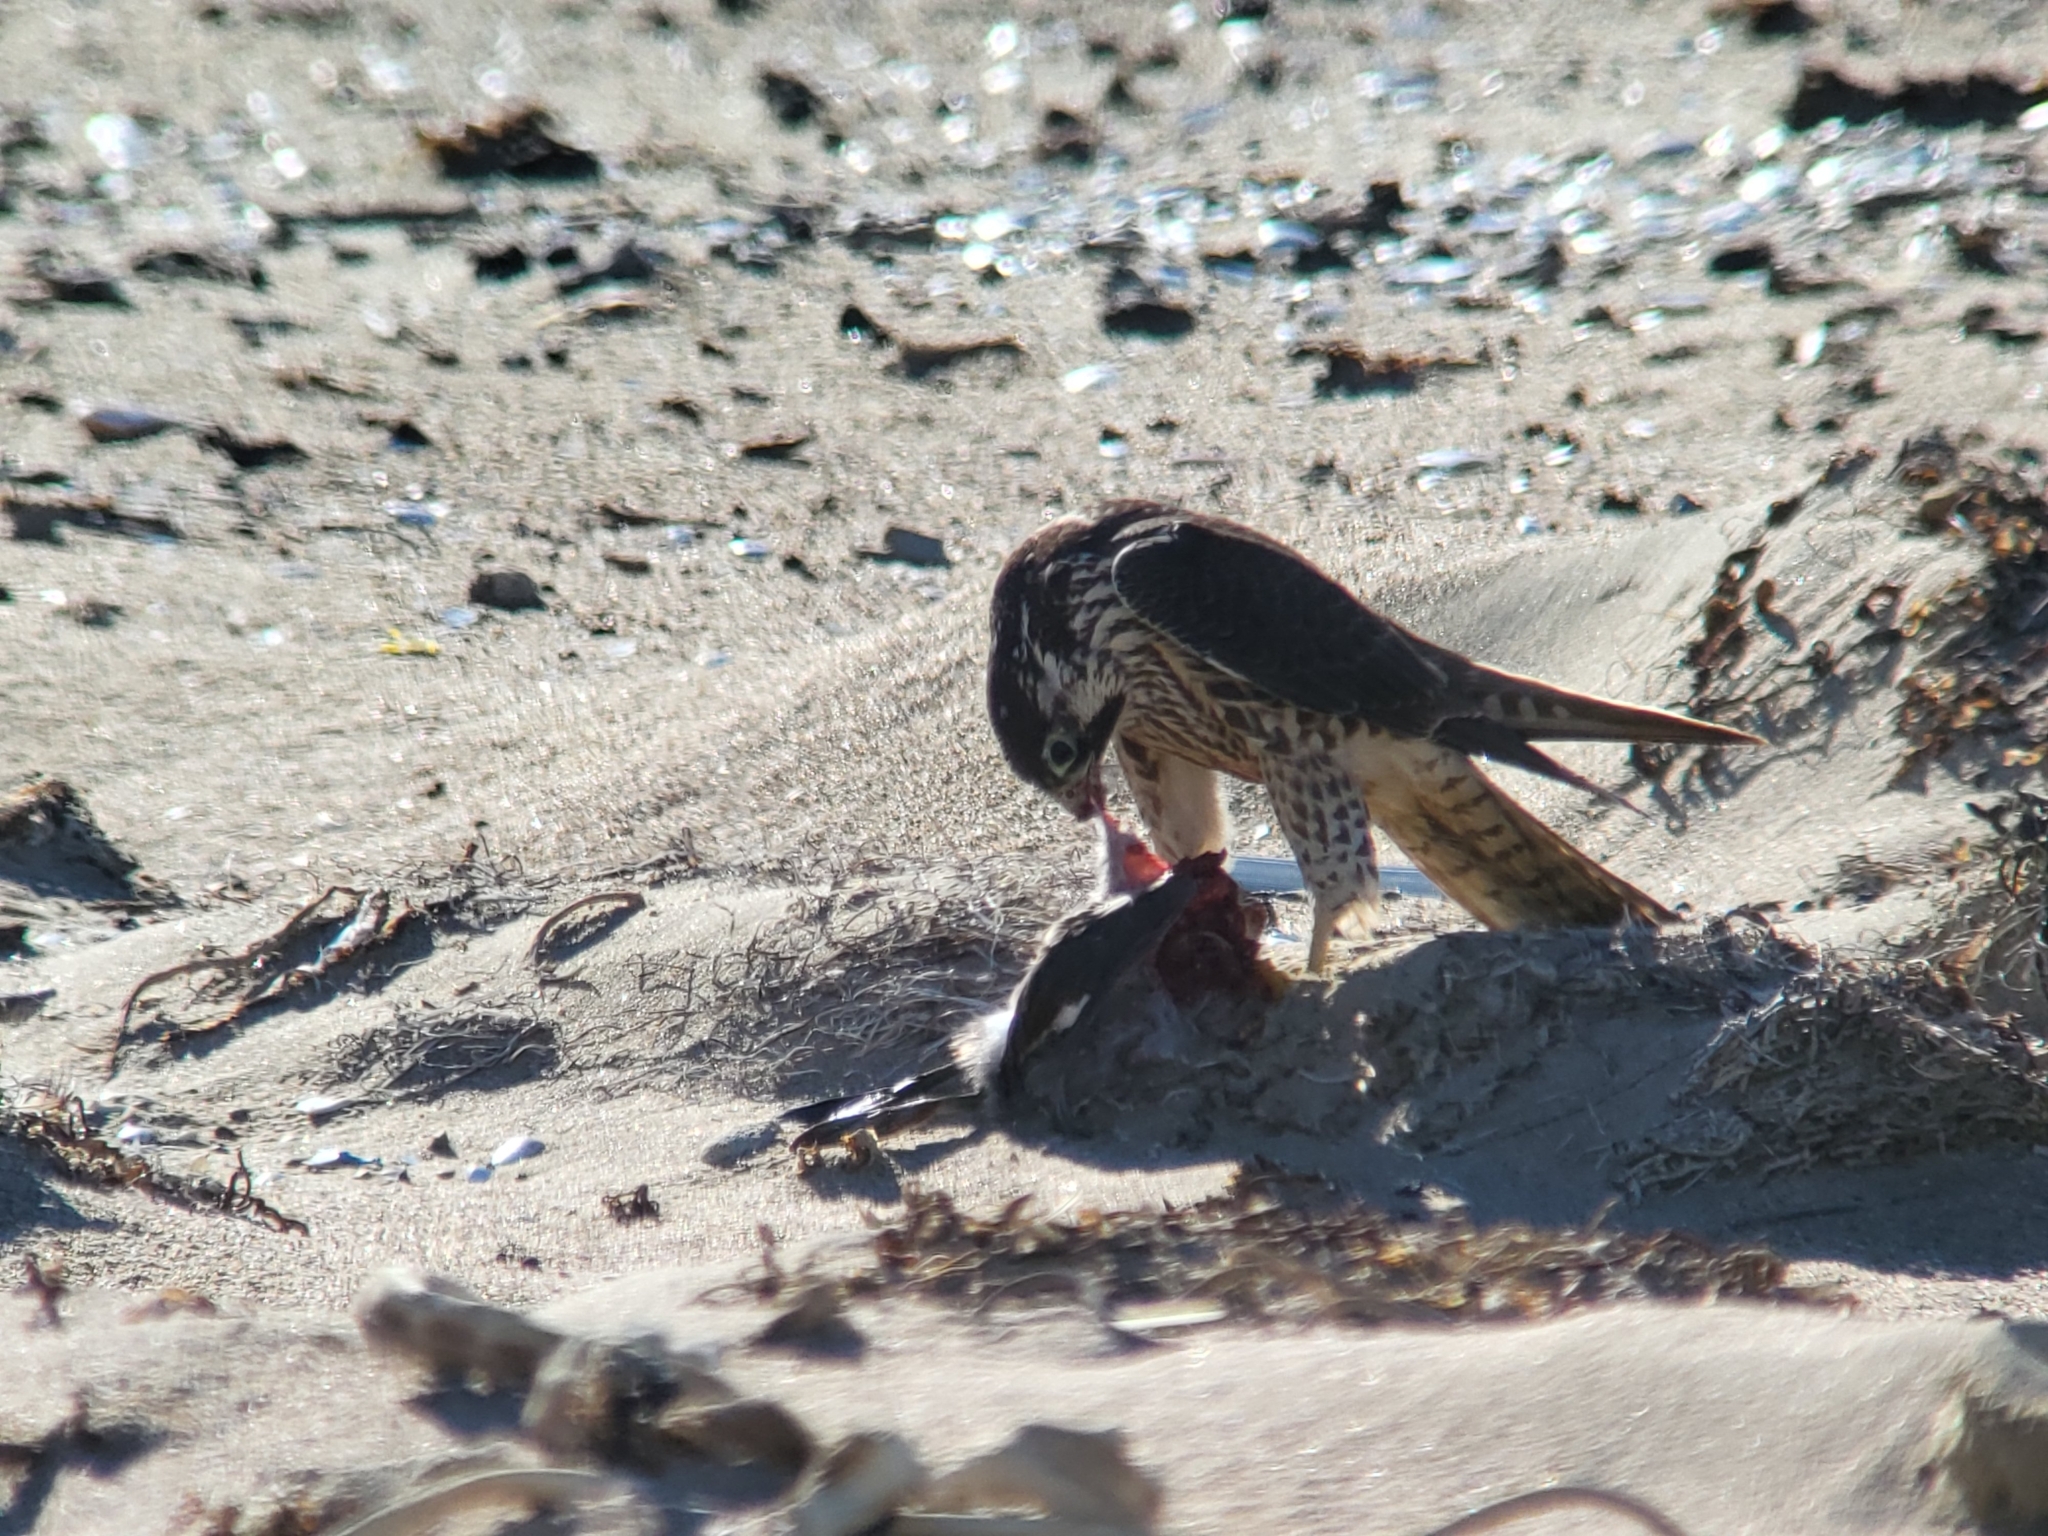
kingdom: Animalia
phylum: Chordata
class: Aves
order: Falconiformes
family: Falconidae
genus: Falco
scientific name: Falco peregrinus
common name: Peregrine falcon
